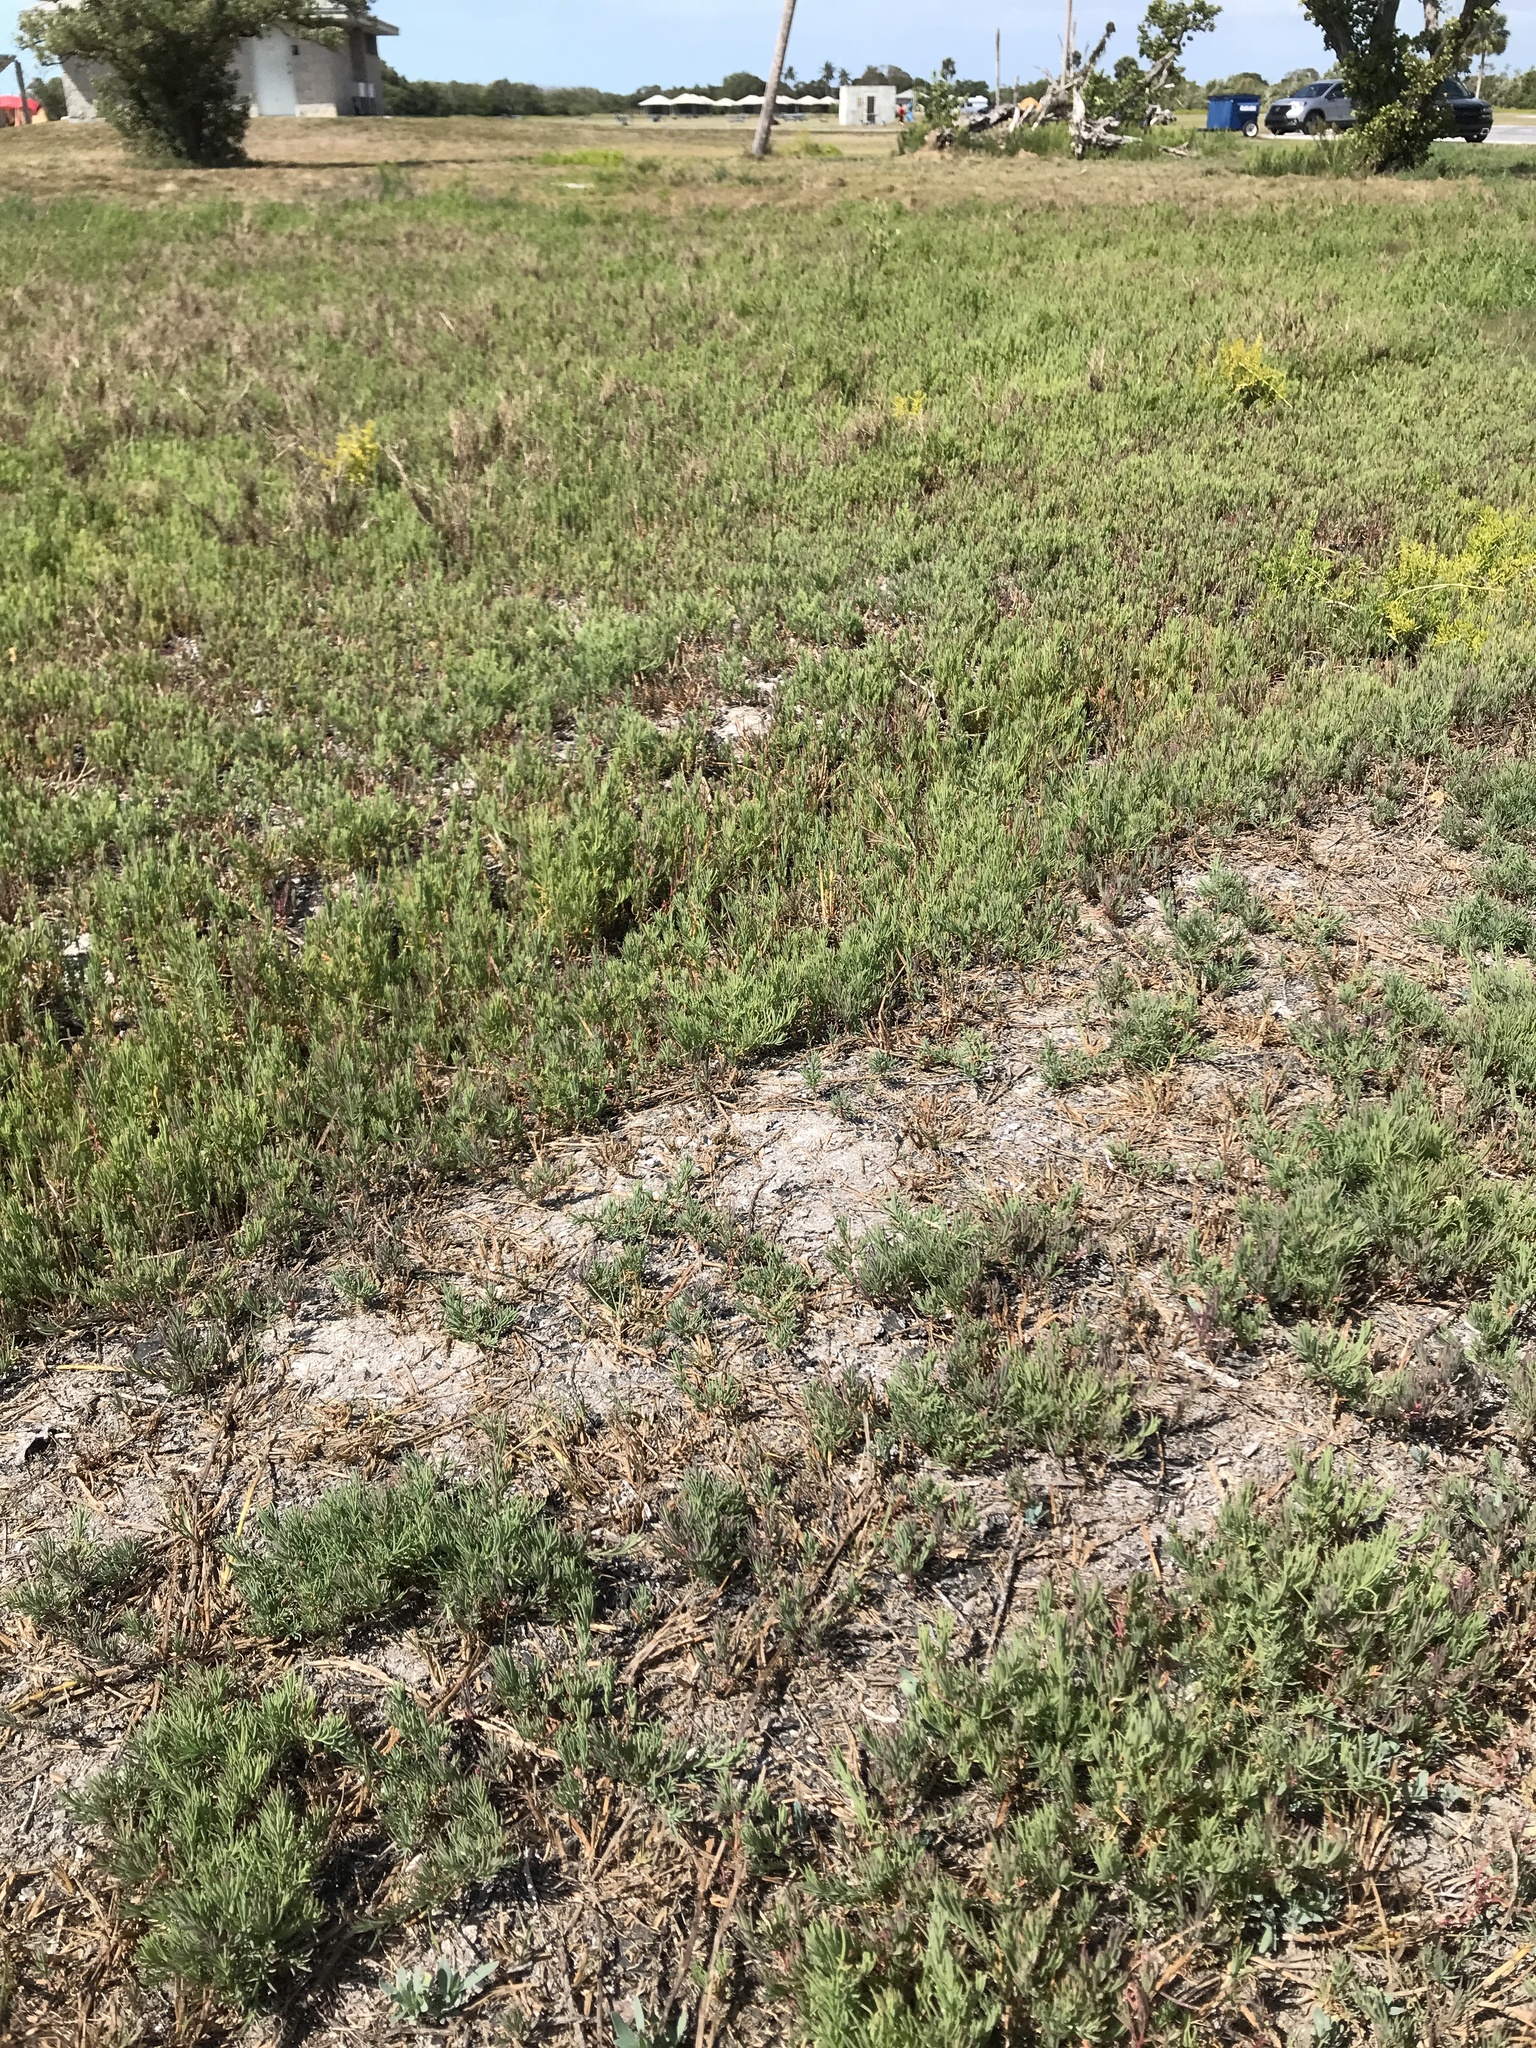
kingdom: Plantae
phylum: Tracheophyta
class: Magnoliopsida
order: Caryophyllales
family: Amaranthaceae
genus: Suaeda
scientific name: Suaeda linearis
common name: Annual seepweed
